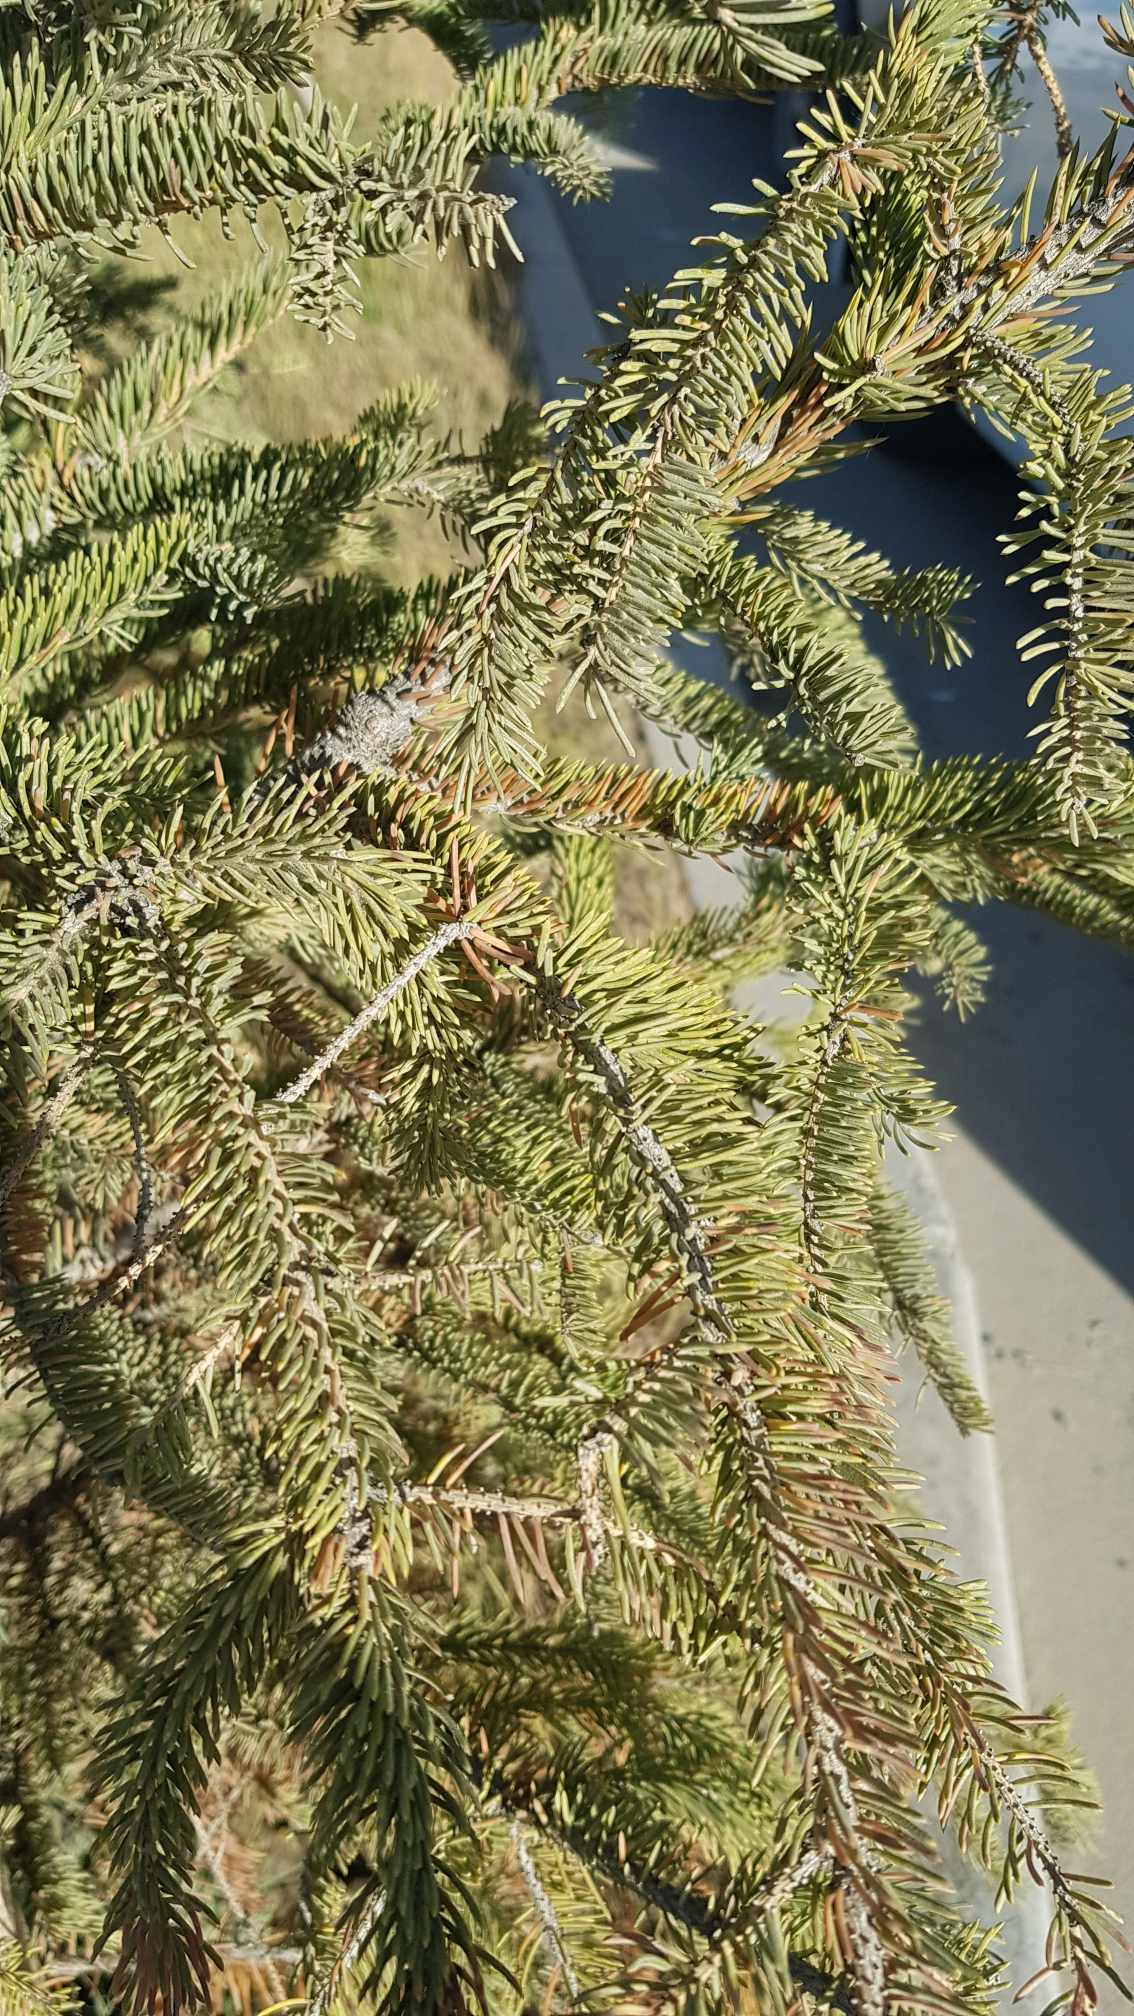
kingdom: Plantae
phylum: Tracheophyta
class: Pinopsida
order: Pinales
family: Pinaceae
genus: Picea
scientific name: Picea glauca
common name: White spruce
